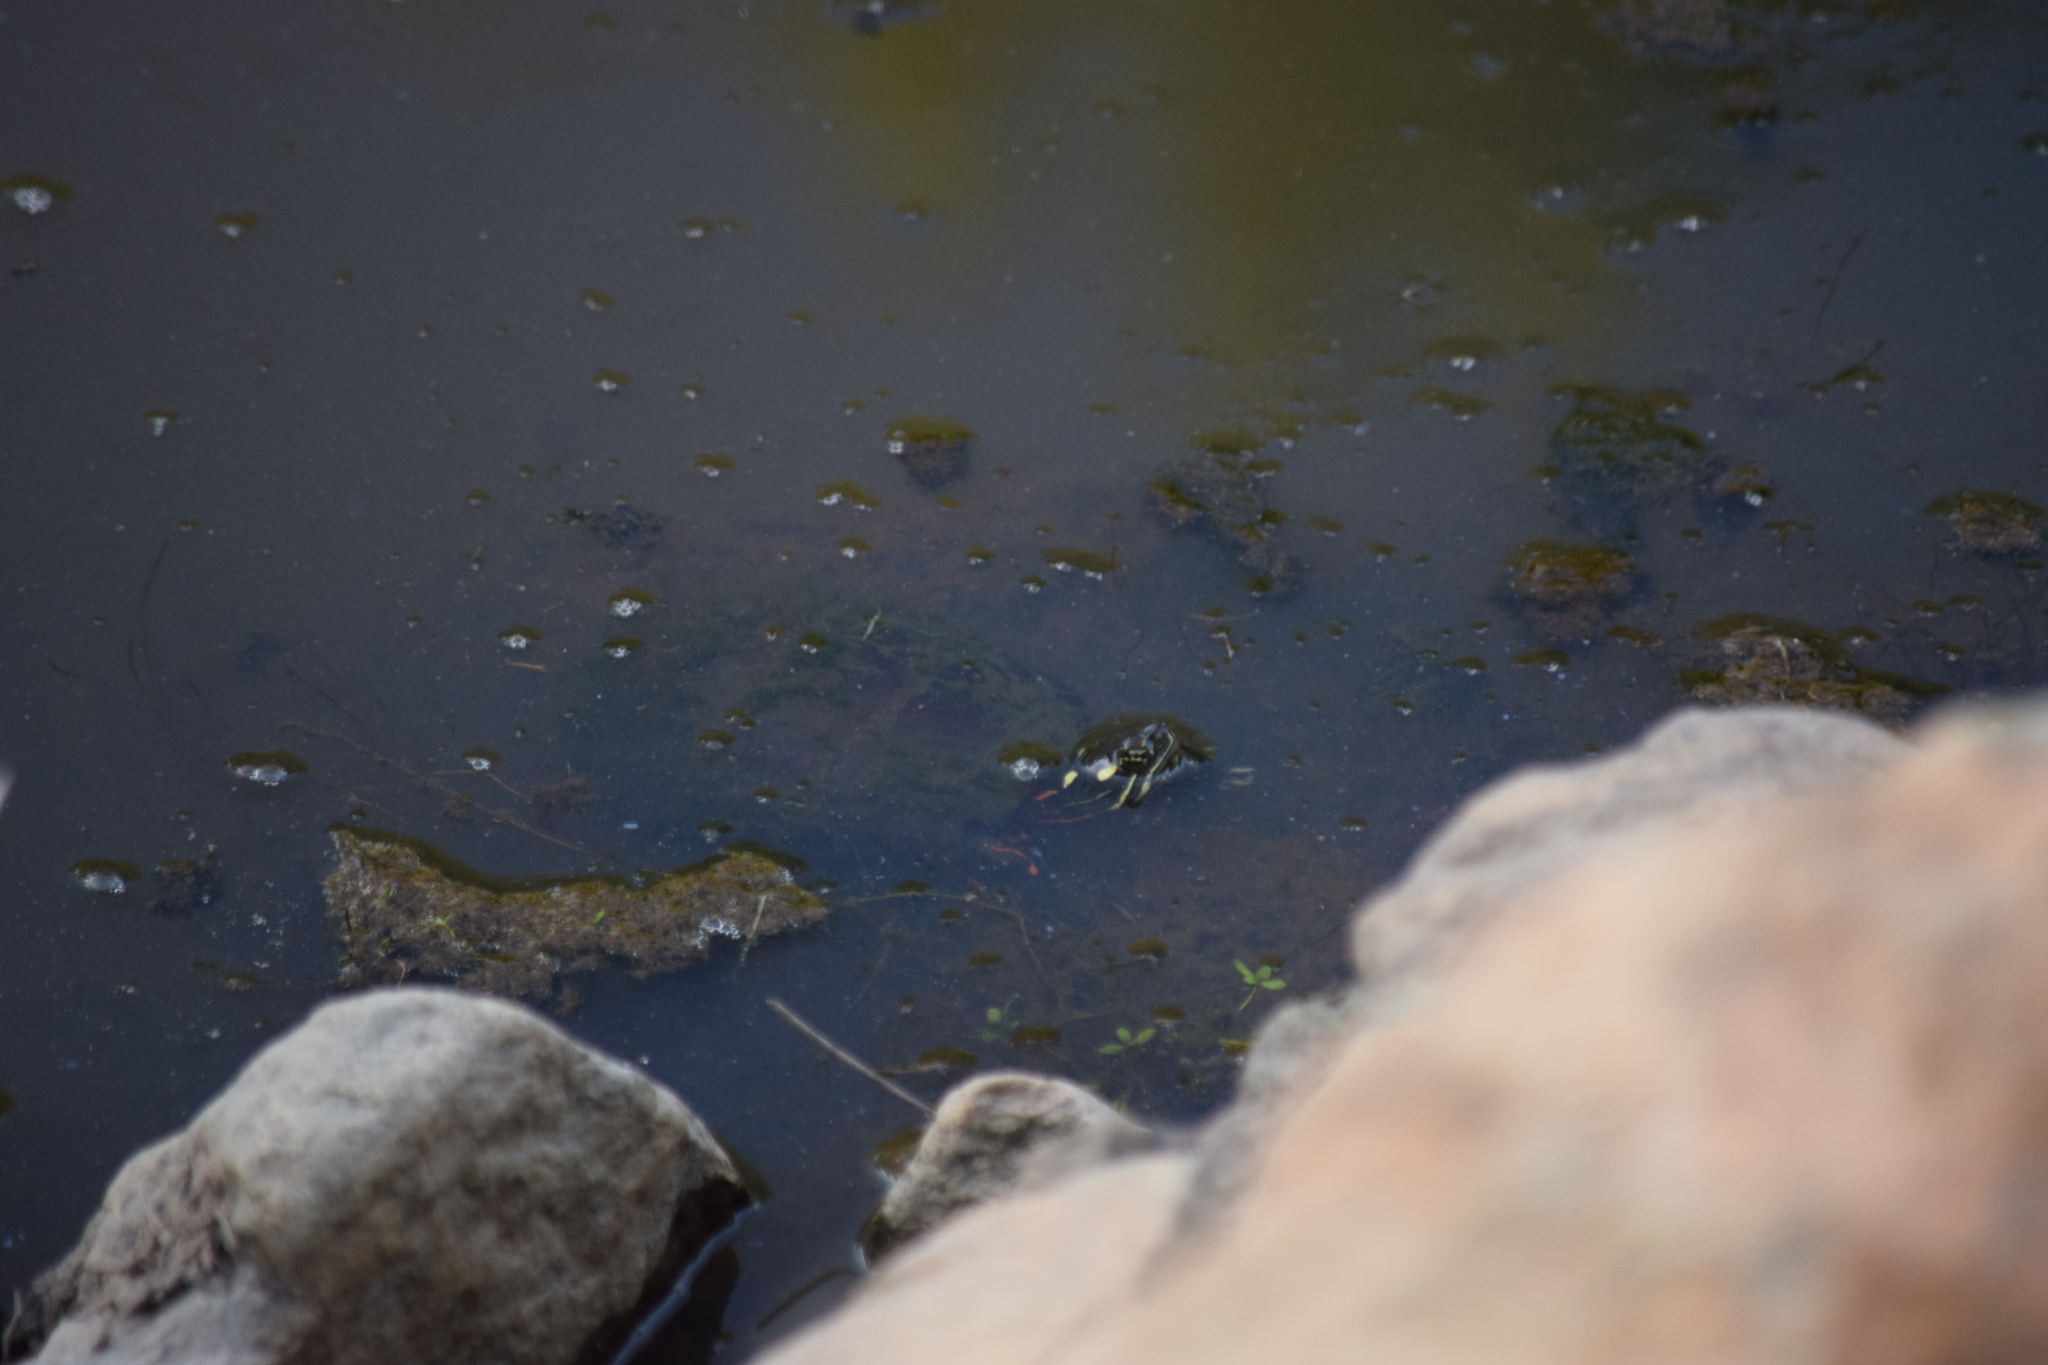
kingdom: Animalia
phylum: Chordata
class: Testudines
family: Emydidae
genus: Chrysemys
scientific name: Chrysemys picta
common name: Painted turtle
